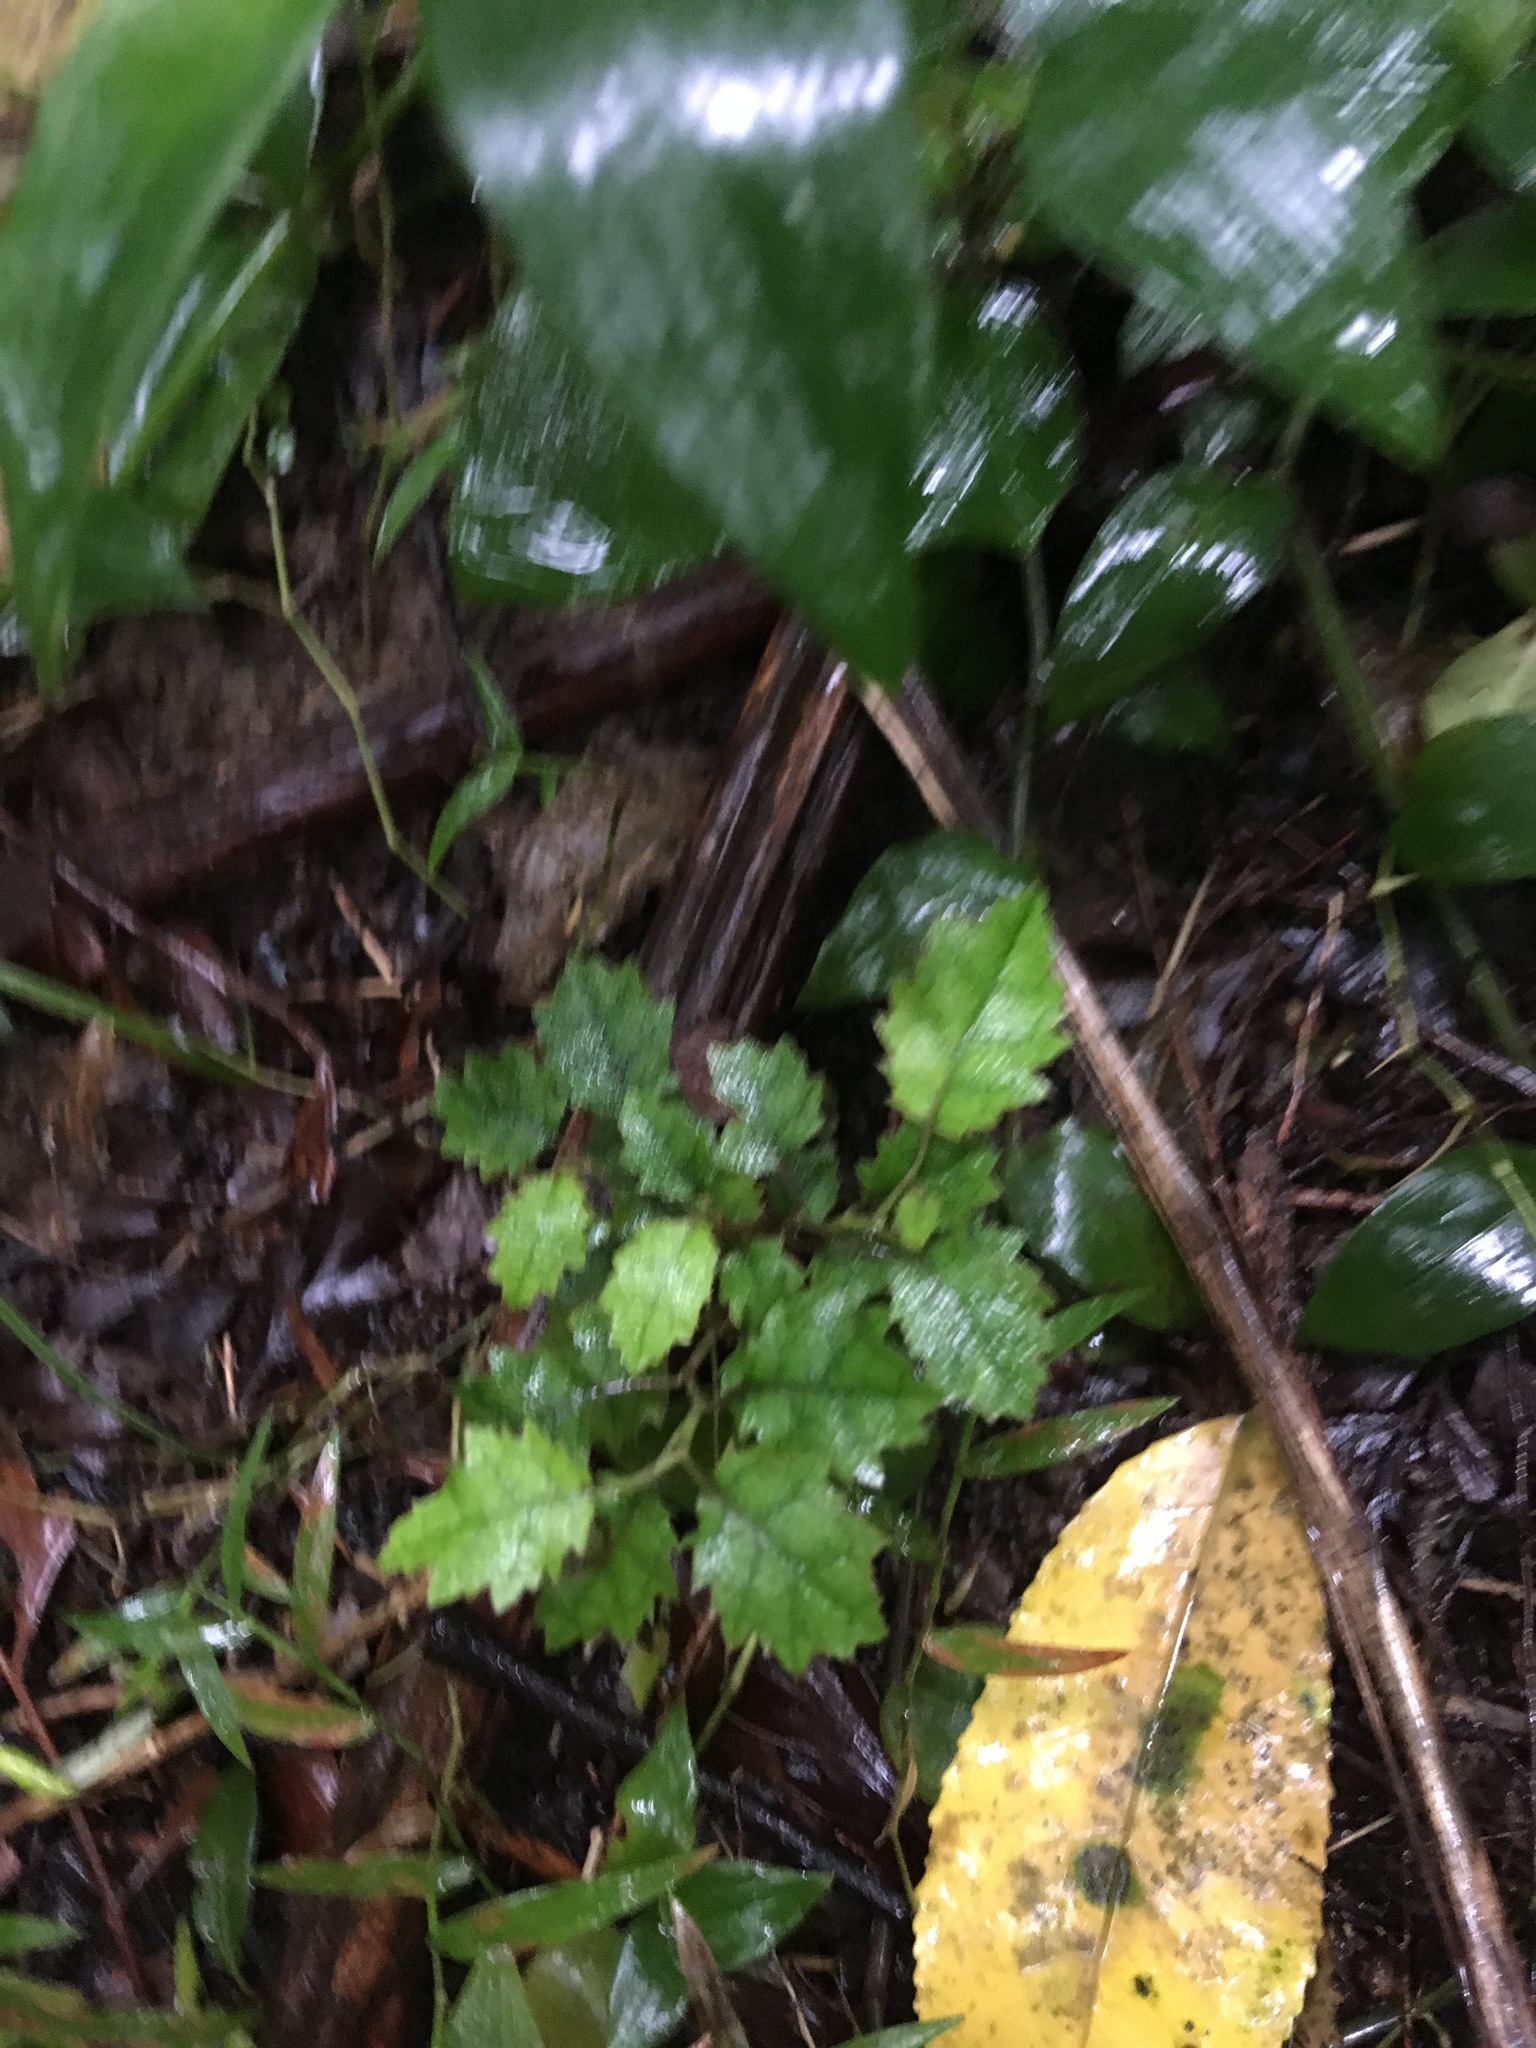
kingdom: Plantae
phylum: Tracheophyta
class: Magnoliopsida
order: Asterales
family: Rousseaceae
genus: Carpodetus
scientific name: Carpodetus serratus
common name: White mapau
